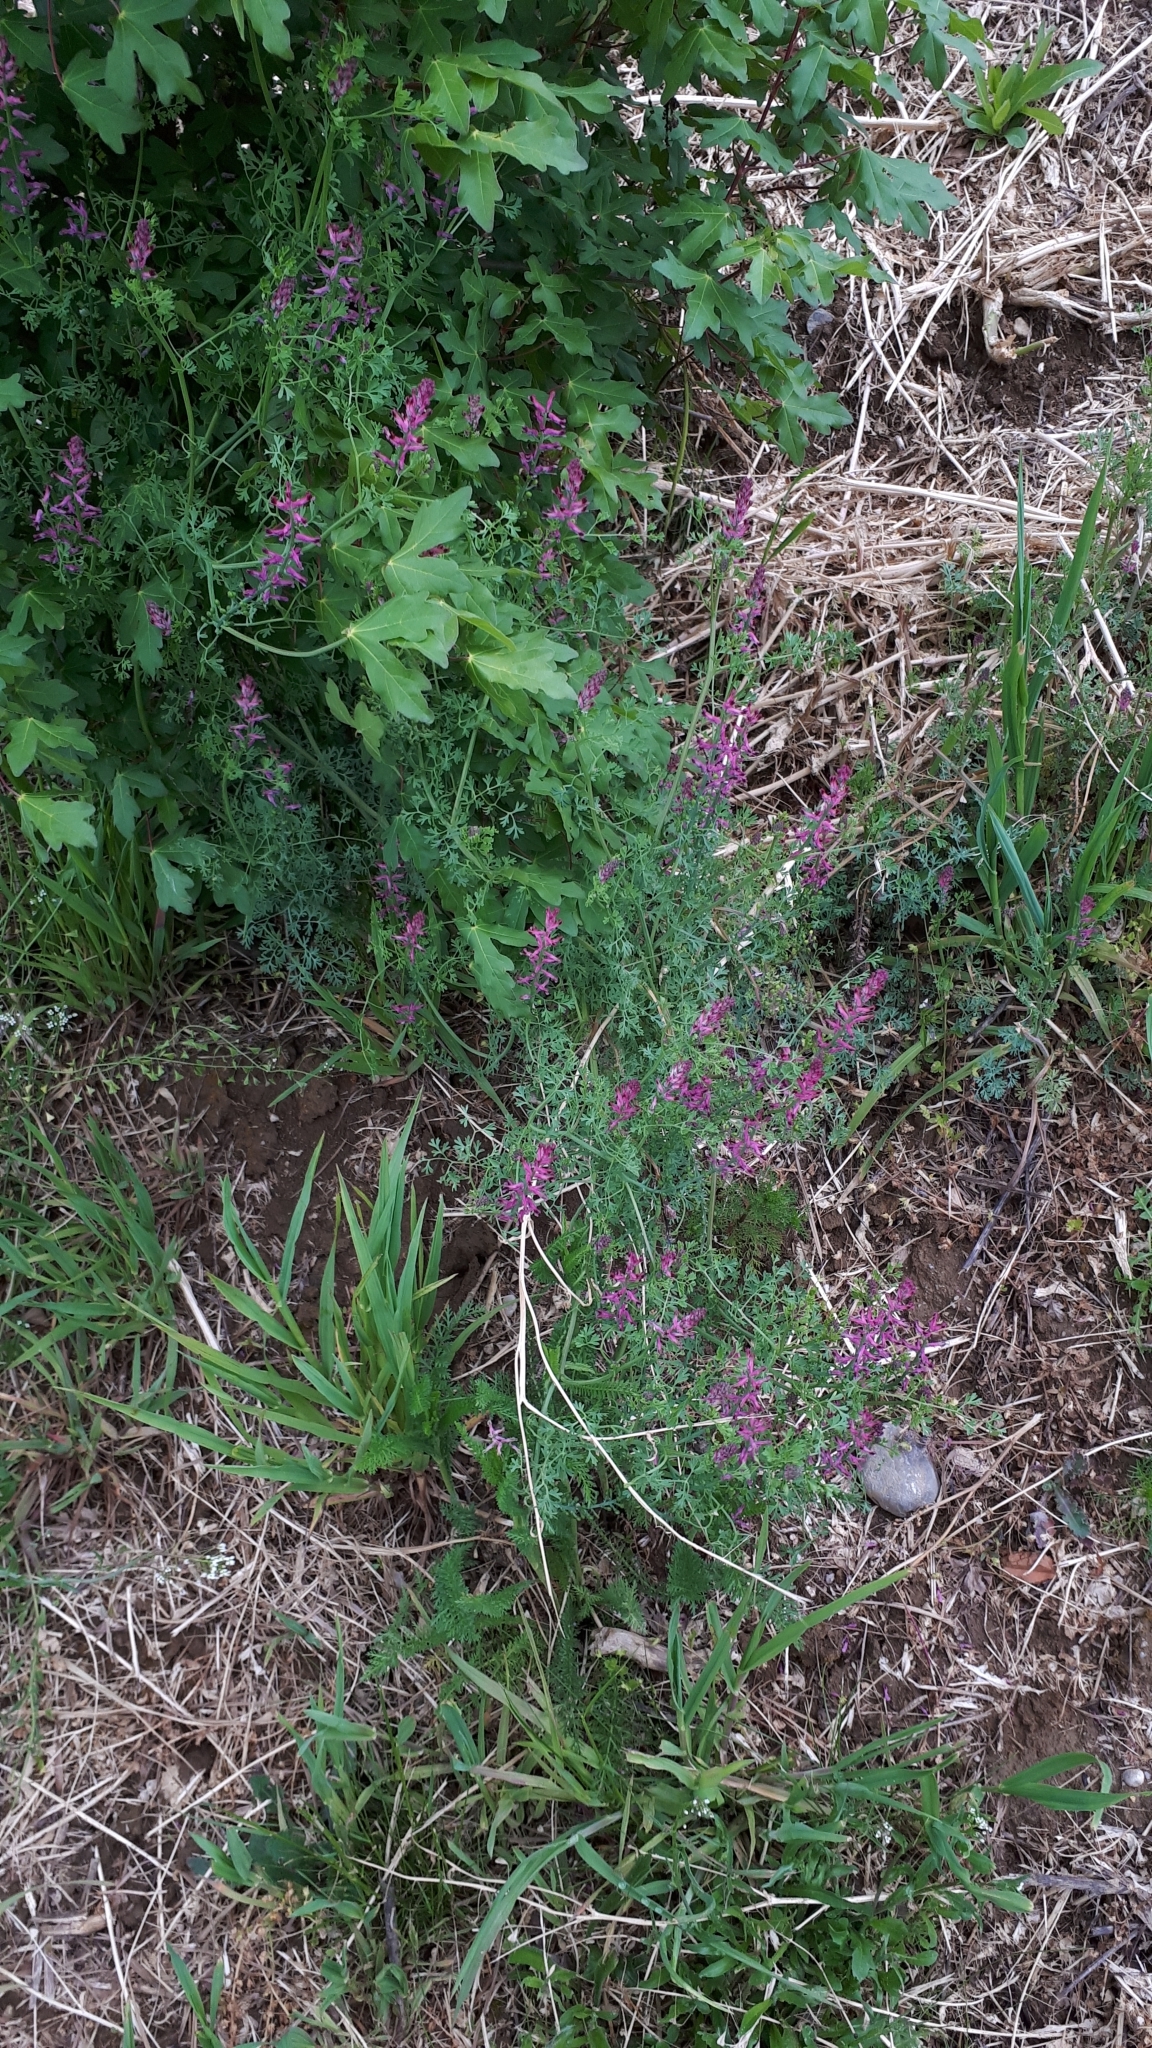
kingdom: Plantae
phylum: Tracheophyta
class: Magnoliopsida
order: Ranunculales
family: Papaveraceae
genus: Fumaria
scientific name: Fumaria officinalis
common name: Common fumitory
